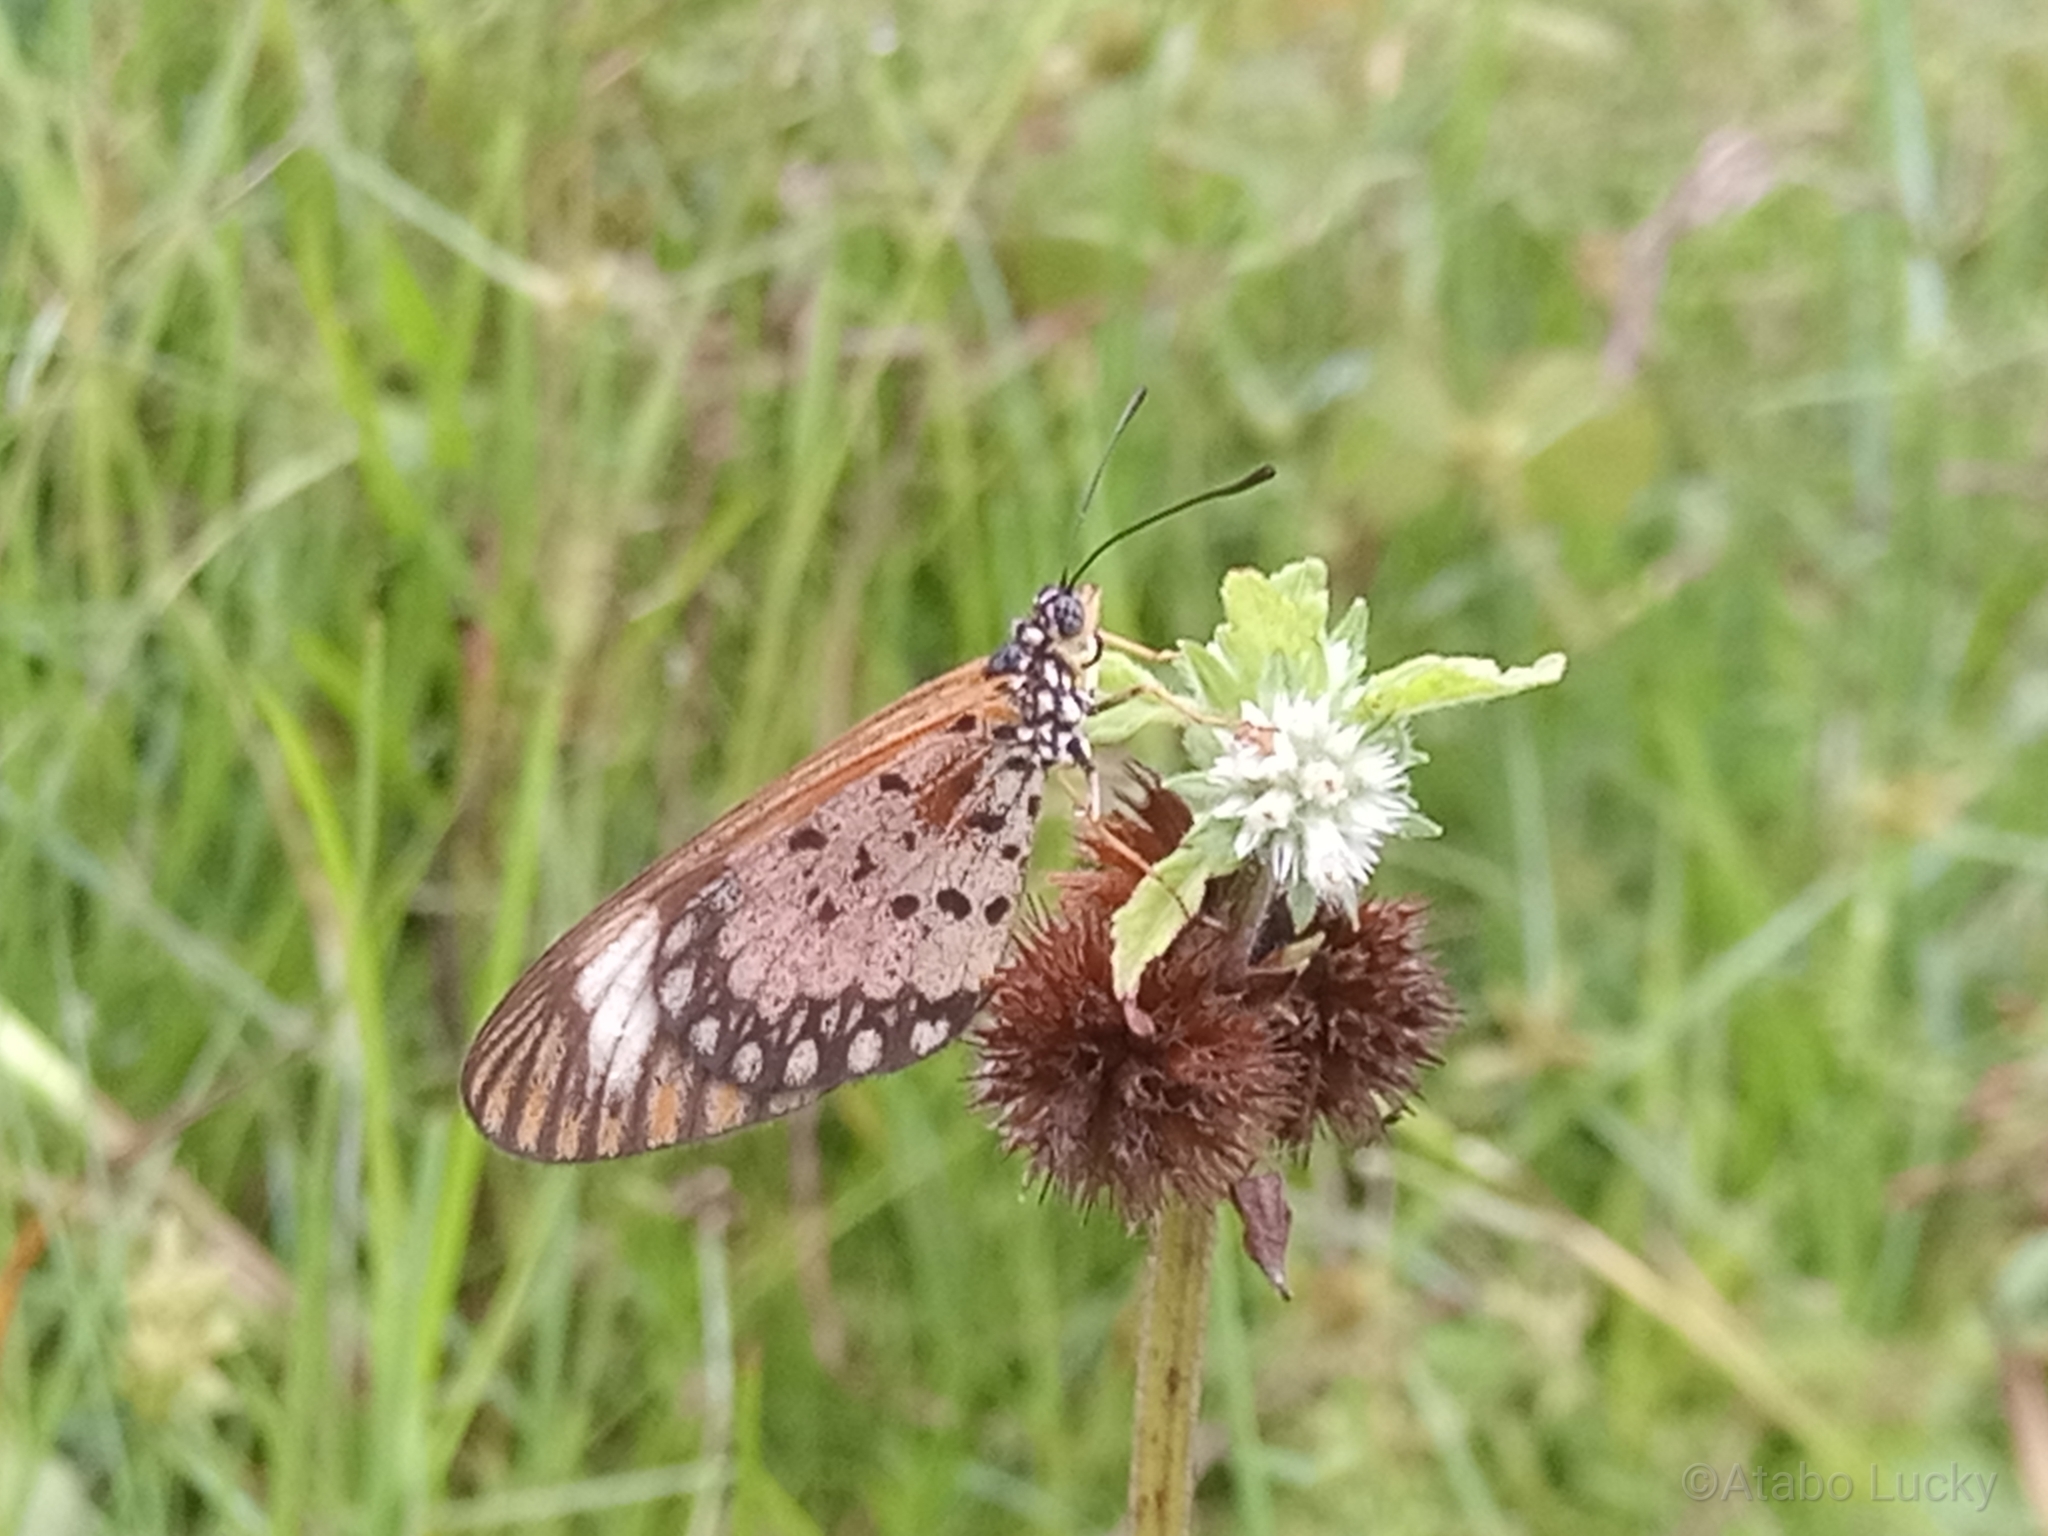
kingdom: Animalia
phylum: Arthropoda
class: Insecta
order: Lepidoptera
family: Nymphalidae
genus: Acraea
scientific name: Acraea Telchinia serena
